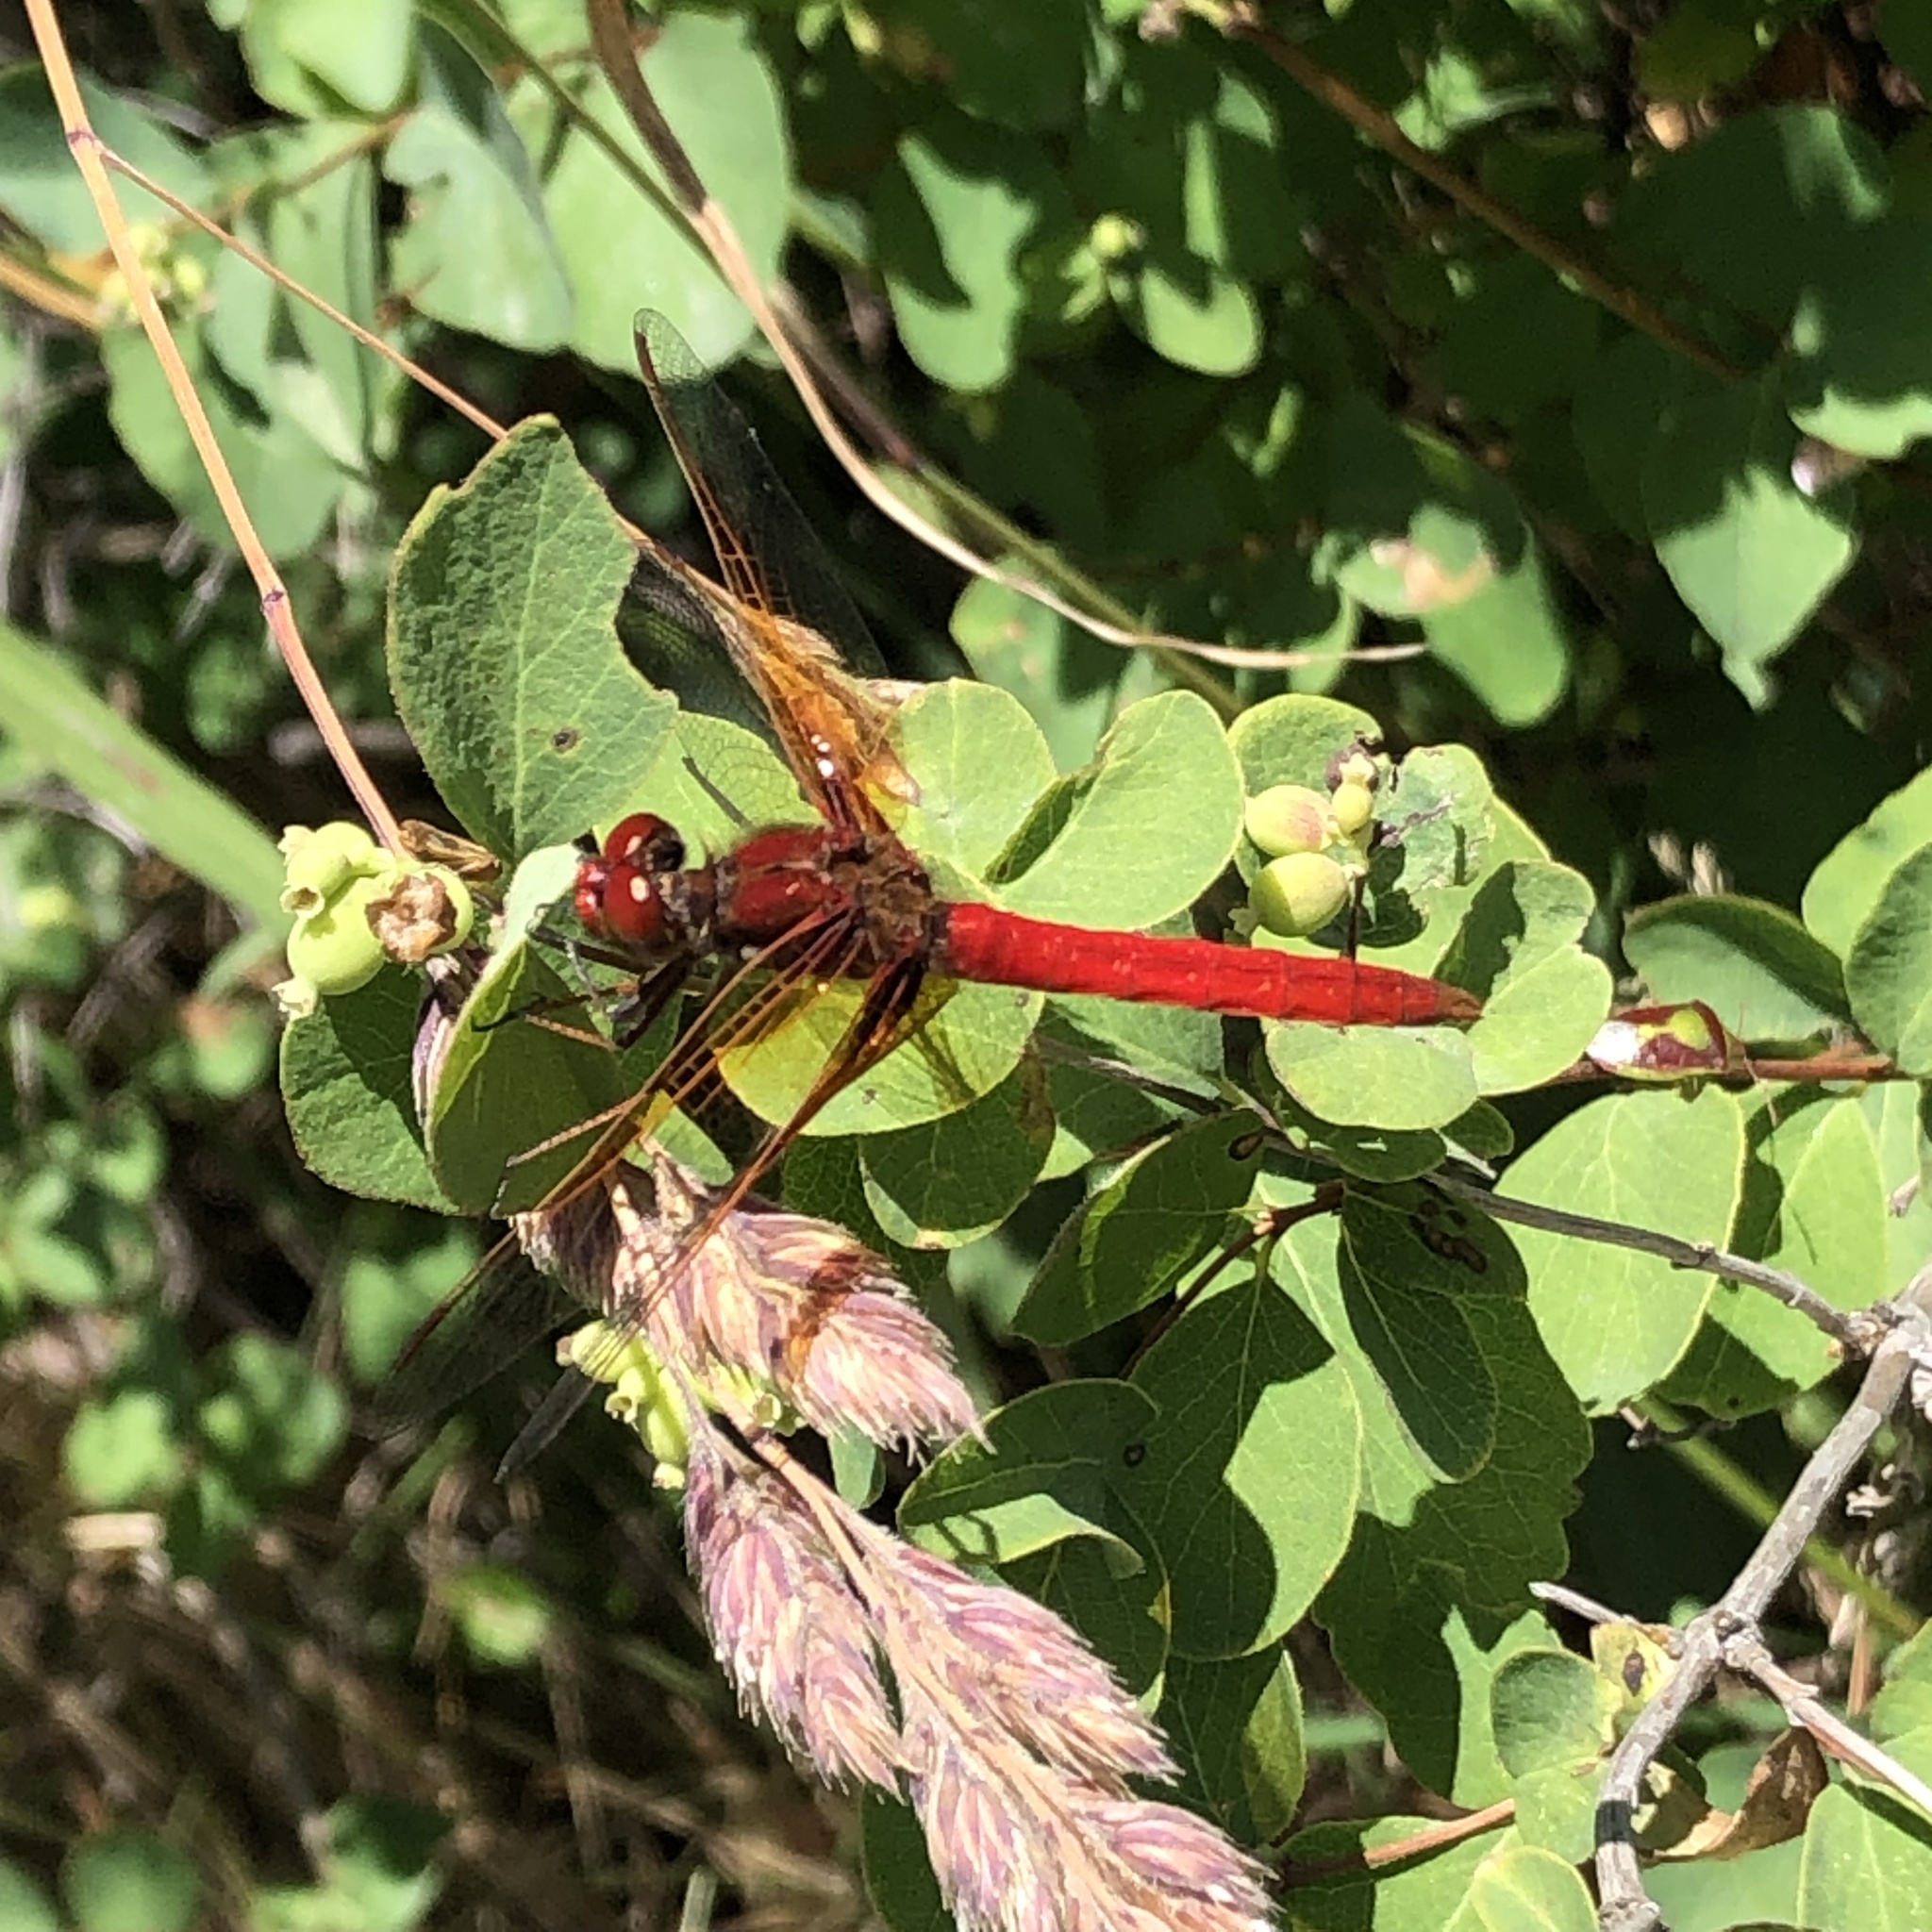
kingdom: Animalia
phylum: Arthropoda
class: Insecta
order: Odonata
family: Libellulidae
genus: Sympetrum
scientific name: Sympetrum illotum
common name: Cardinal meadowhawk
